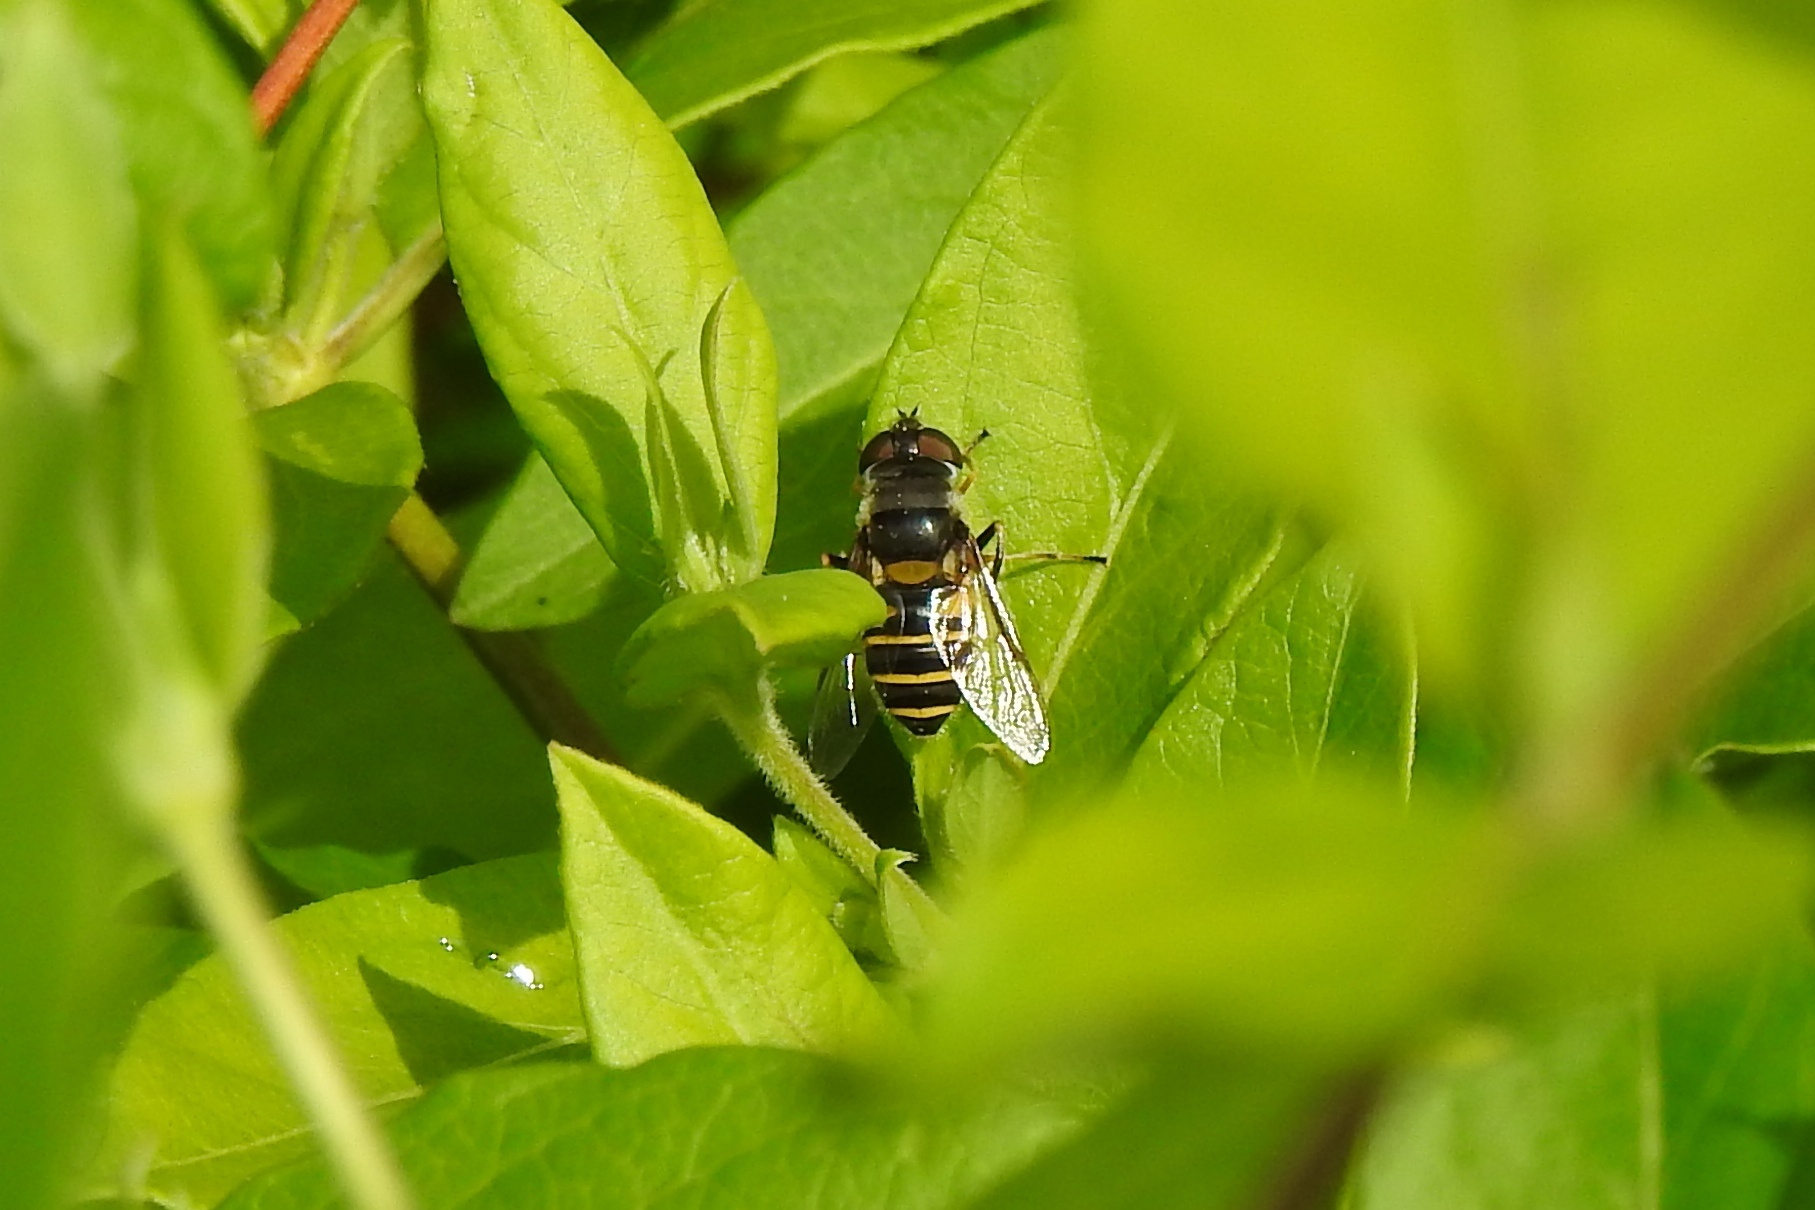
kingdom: Animalia
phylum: Arthropoda
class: Insecta
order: Diptera
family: Syrphidae
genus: Eristalis
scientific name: Eristalis transversa
